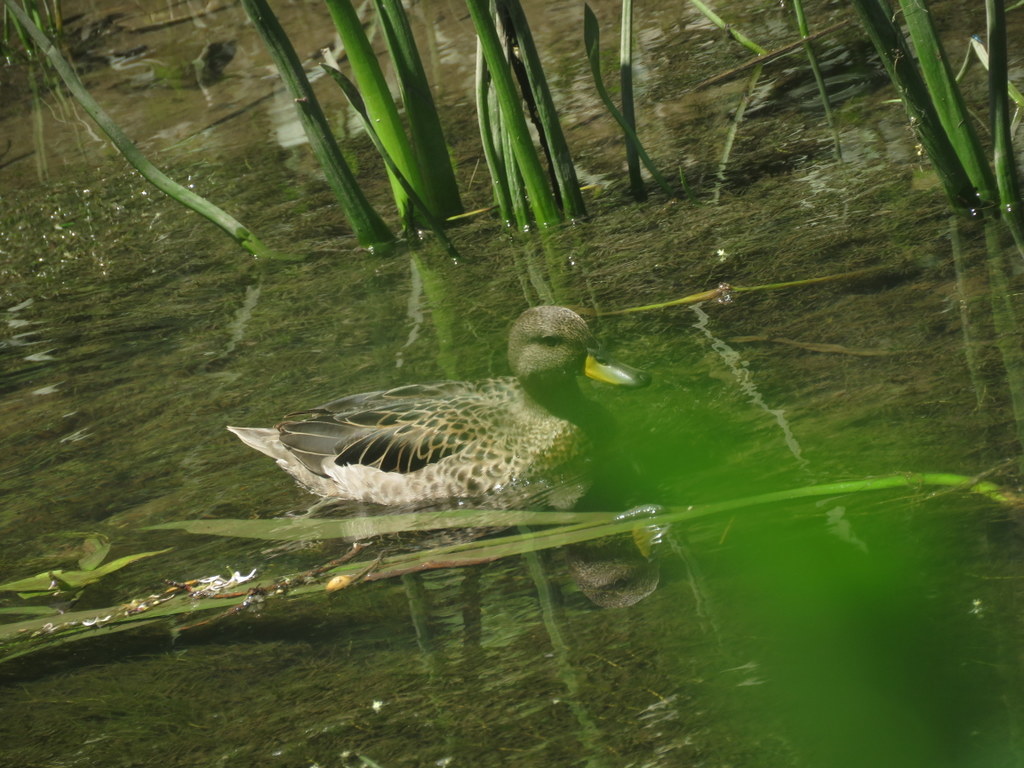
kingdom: Animalia
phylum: Chordata
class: Aves
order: Anseriformes
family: Anatidae
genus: Anas
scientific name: Anas flavirostris
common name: Yellow-billed teal
